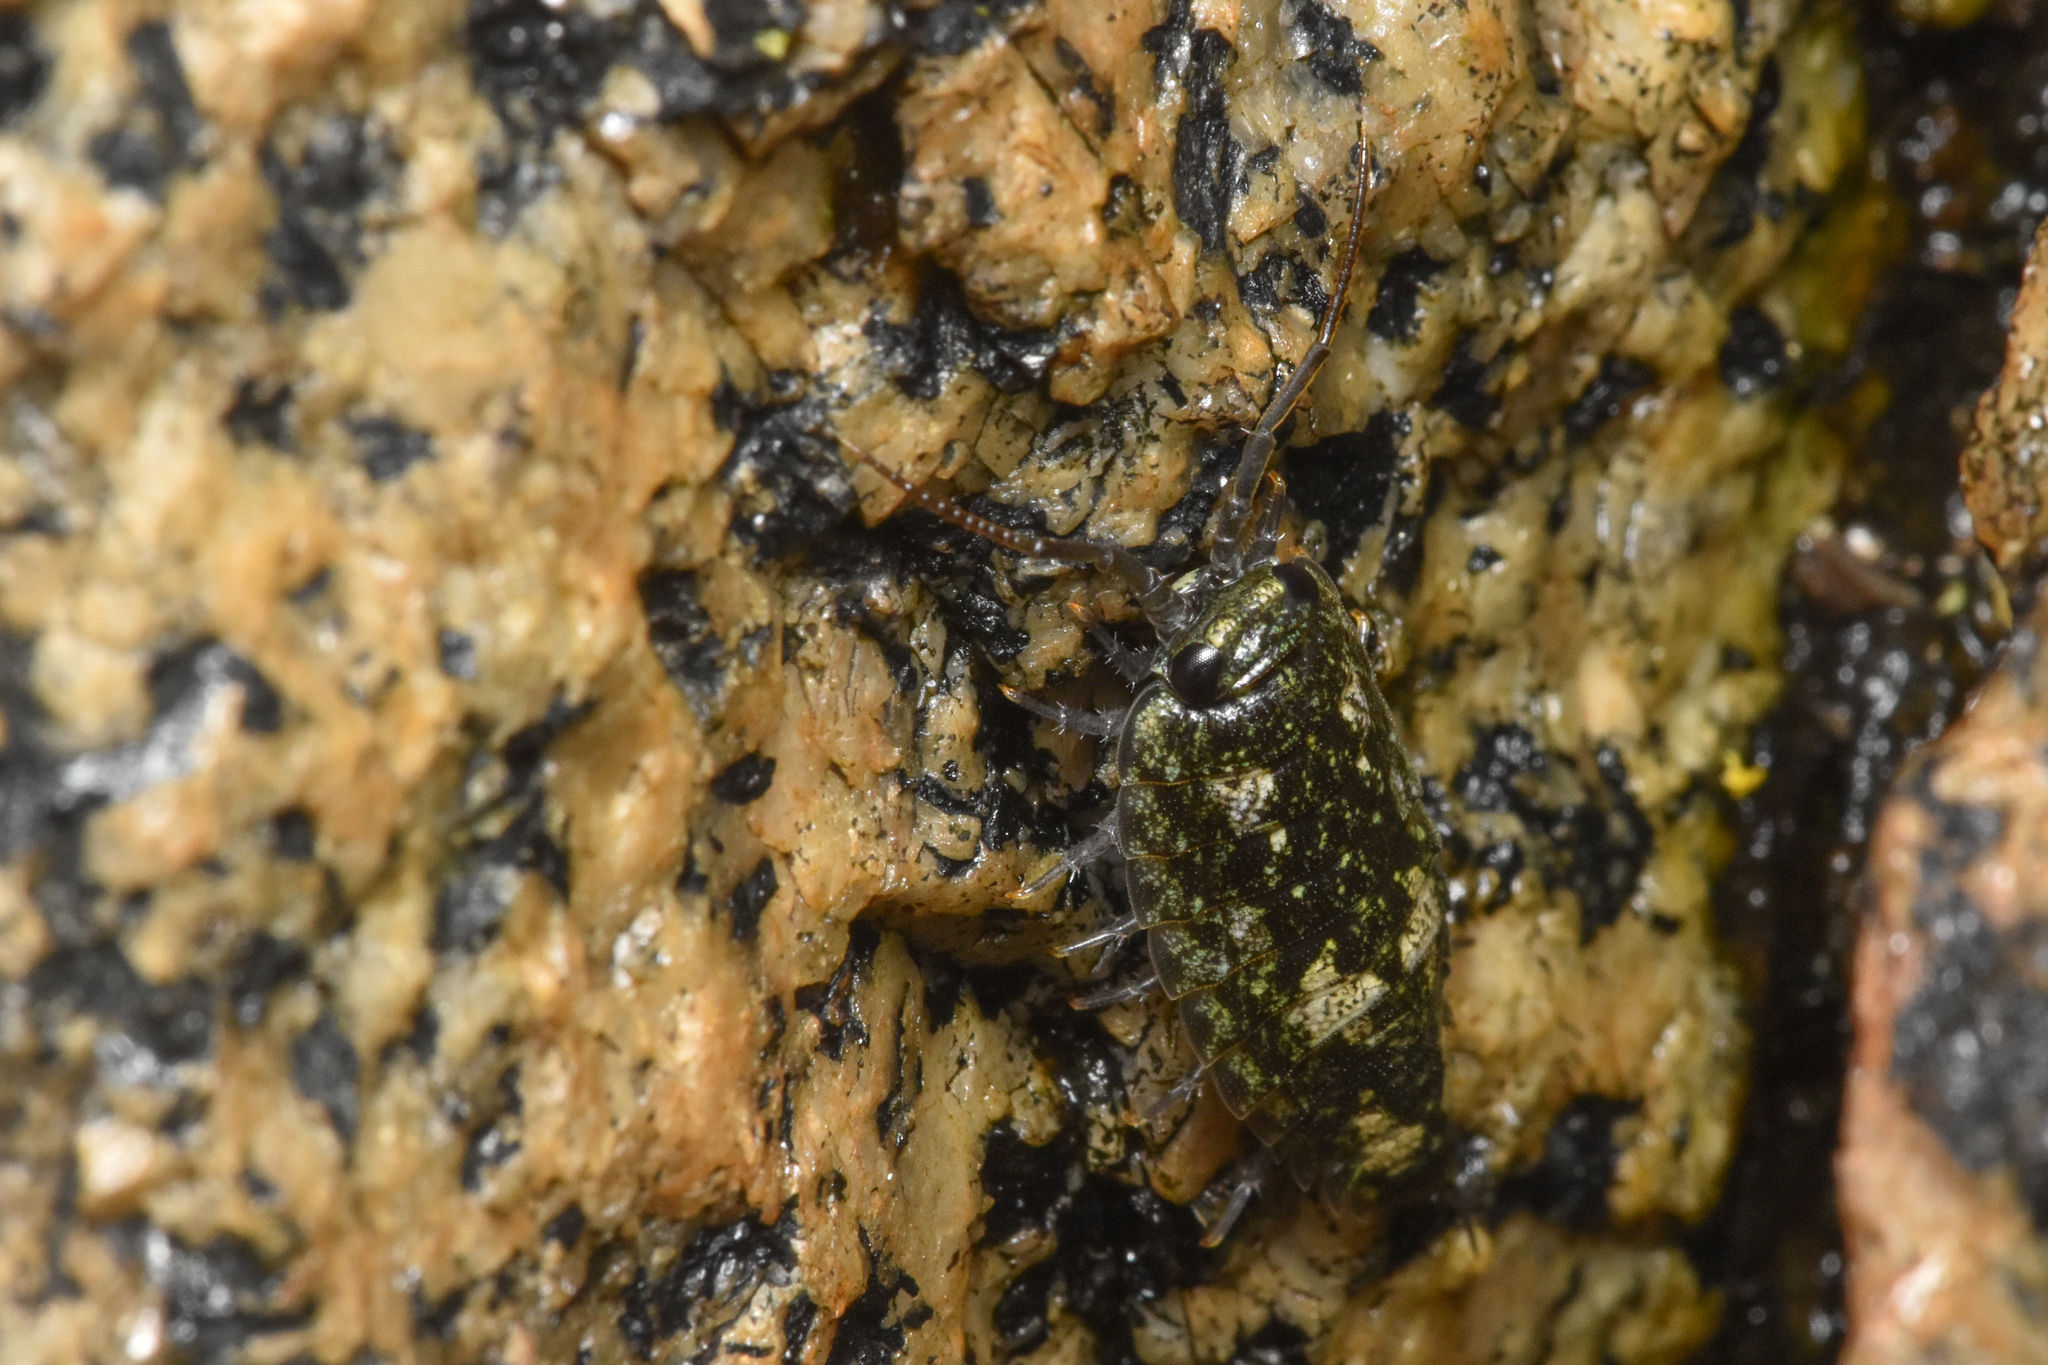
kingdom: Animalia
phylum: Arthropoda
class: Malacostraca
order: Isopoda
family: Ligiidae
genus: Ligia
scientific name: Ligia pallasii
